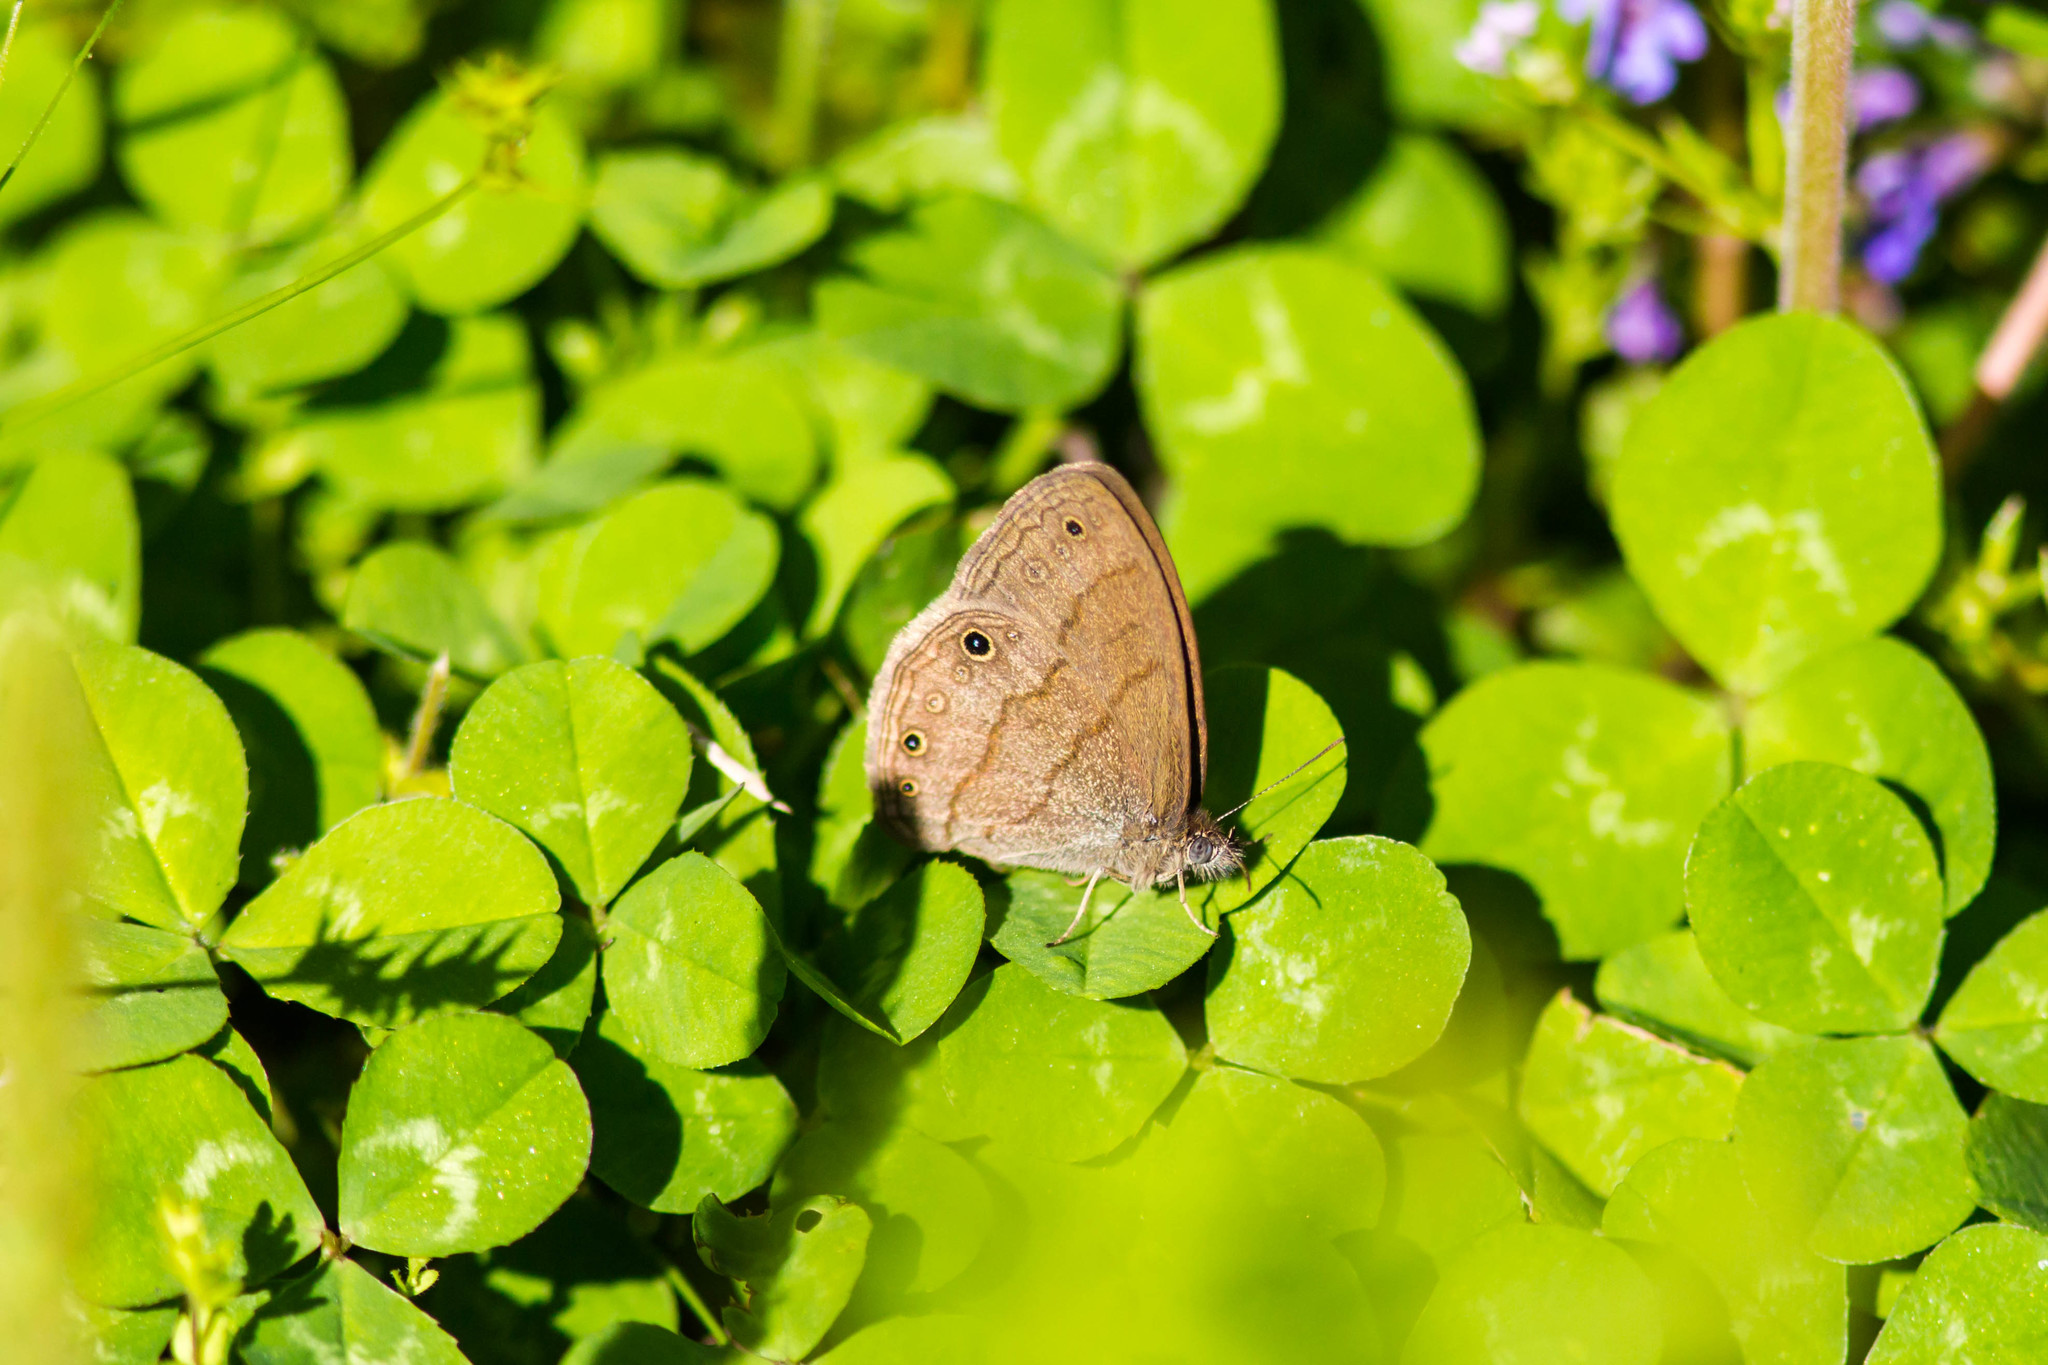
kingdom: Animalia
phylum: Arthropoda
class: Insecta
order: Lepidoptera
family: Nymphalidae
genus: Hermeuptychia
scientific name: Hermeuptychia hermes
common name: Hermes satyr
